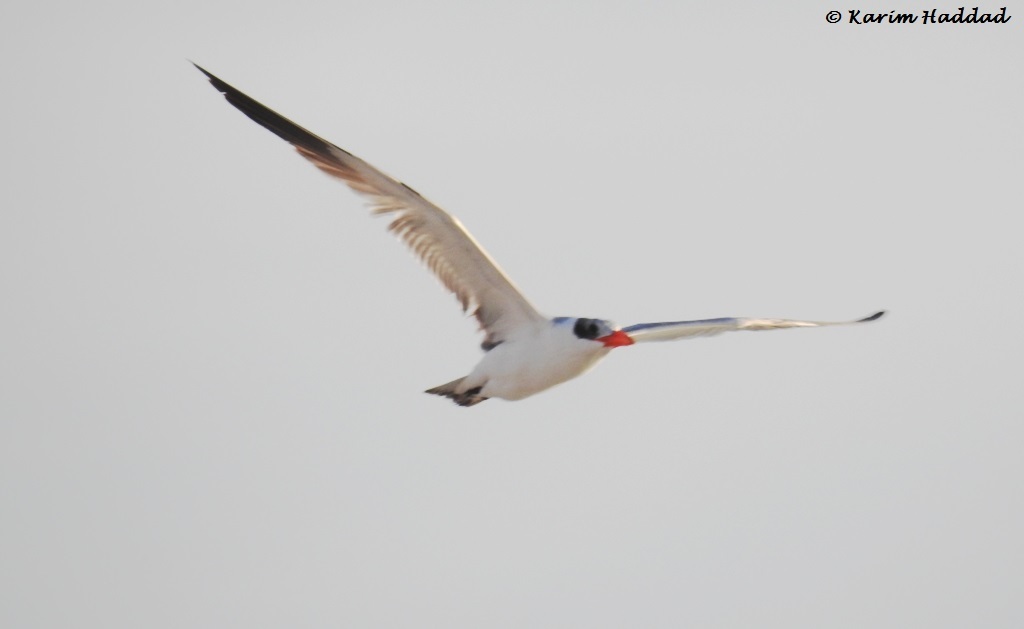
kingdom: Animalia
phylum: Chordata
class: Aves
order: Charadriiformes
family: Laridae
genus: Hydroprogne
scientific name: Hydroprogne caspia
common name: Caspian tern
